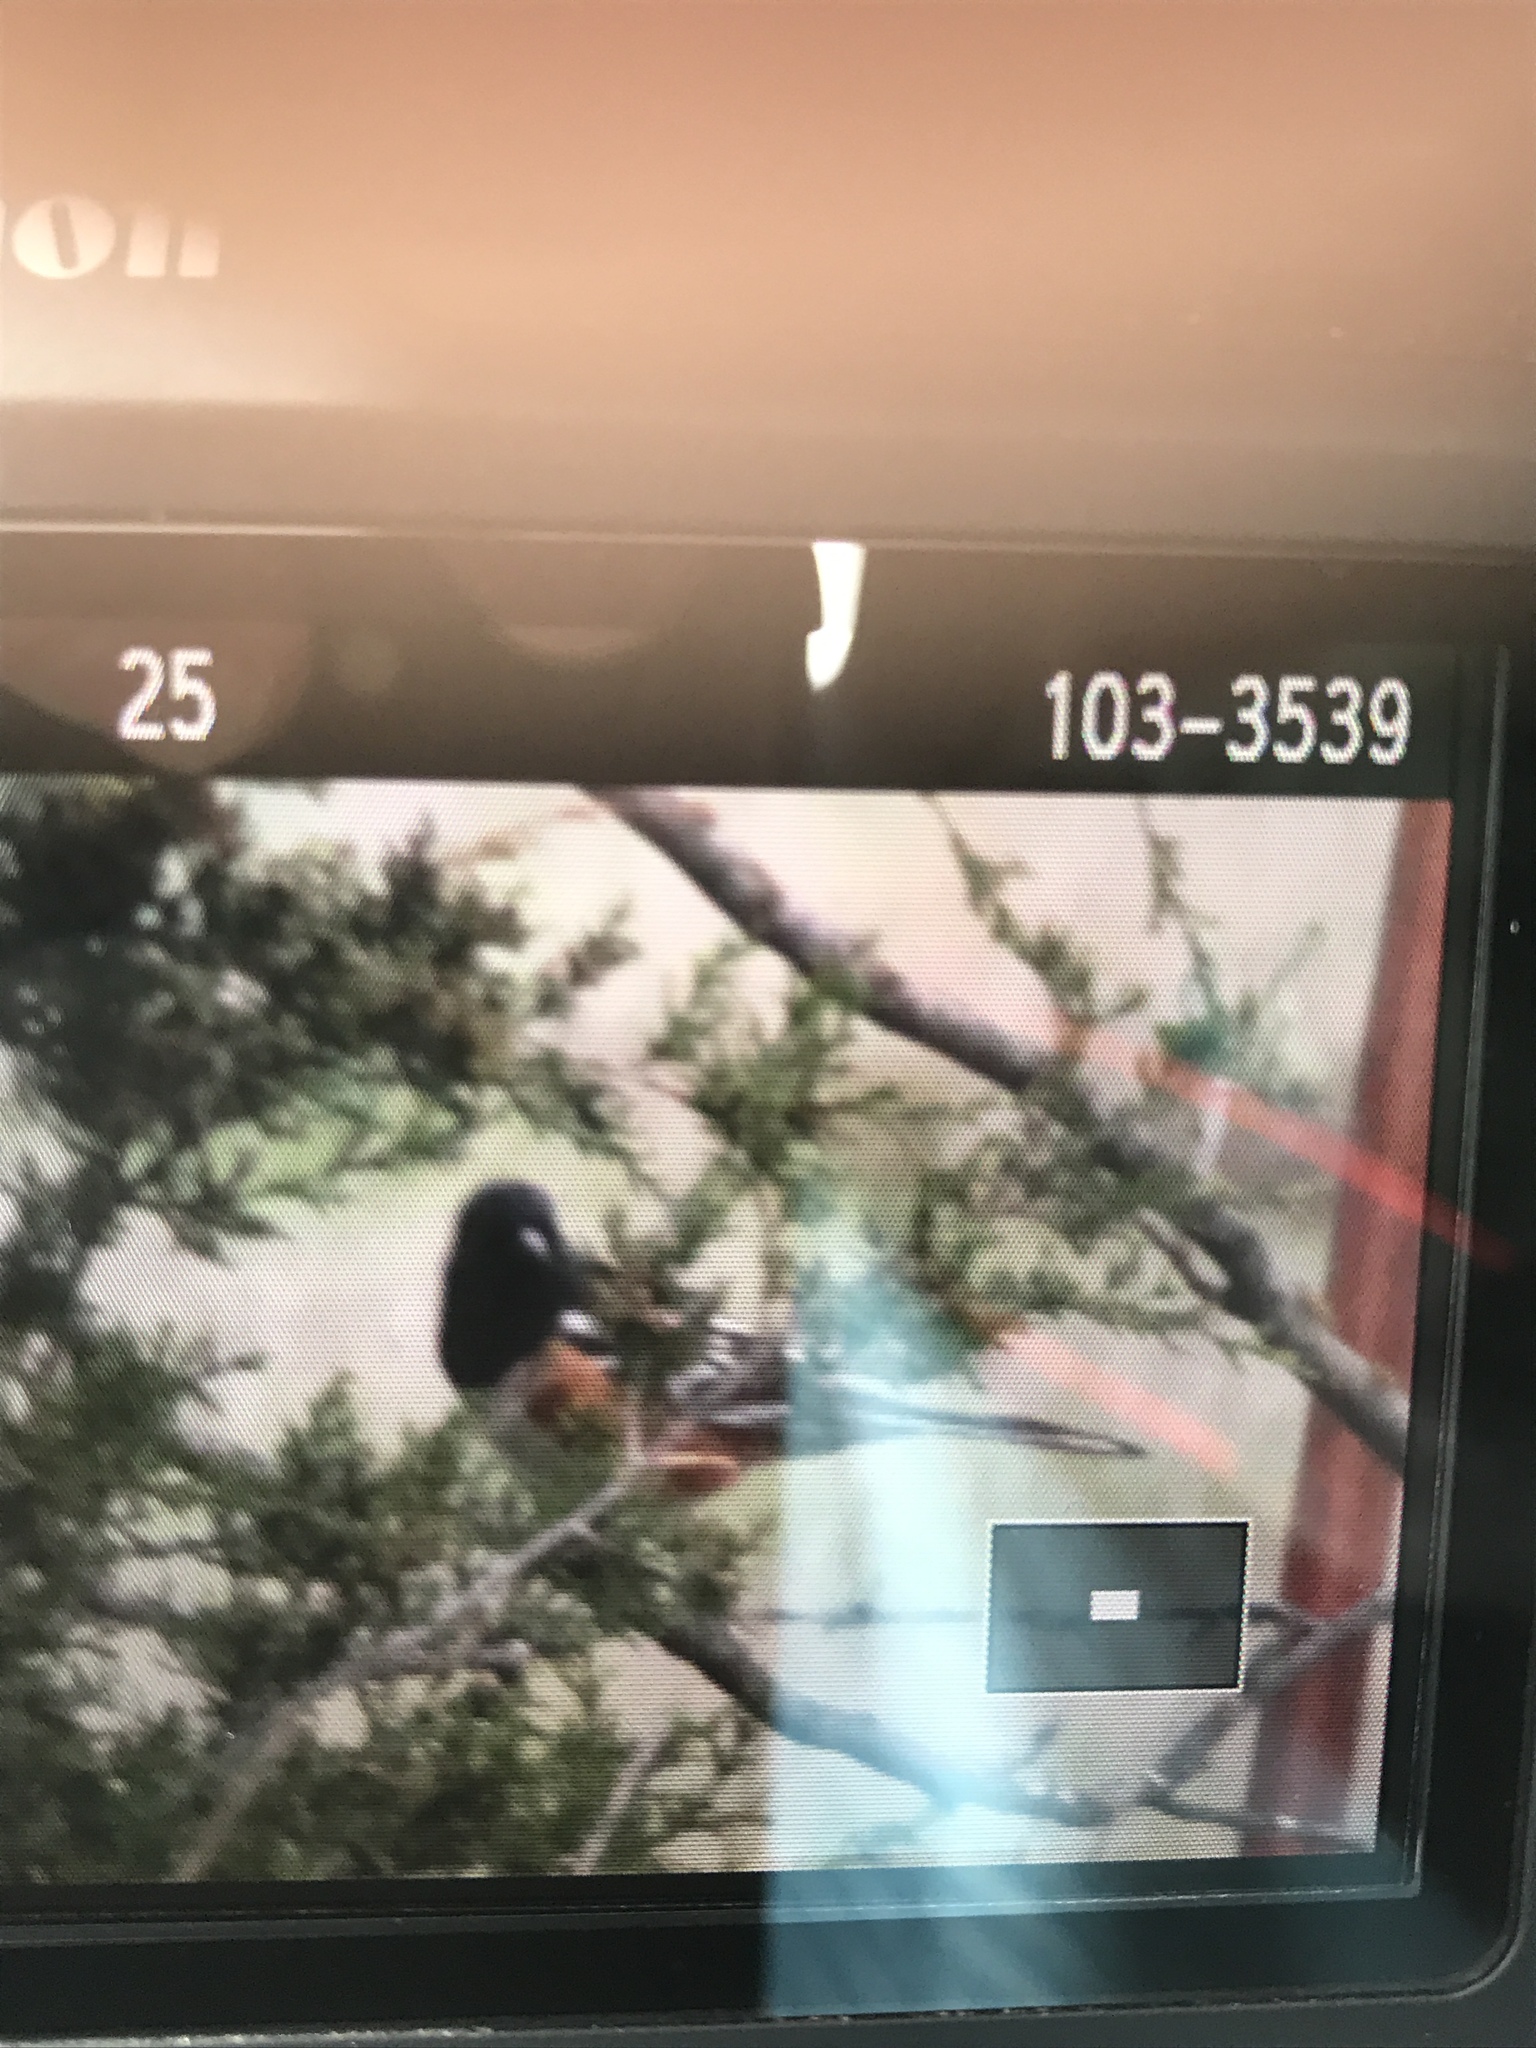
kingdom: Animalia
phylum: Chordata
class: Aves
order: Passeriformes
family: Passerellidae
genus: Pipilo
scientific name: Pipilo maculatus
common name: Spotted towhee
